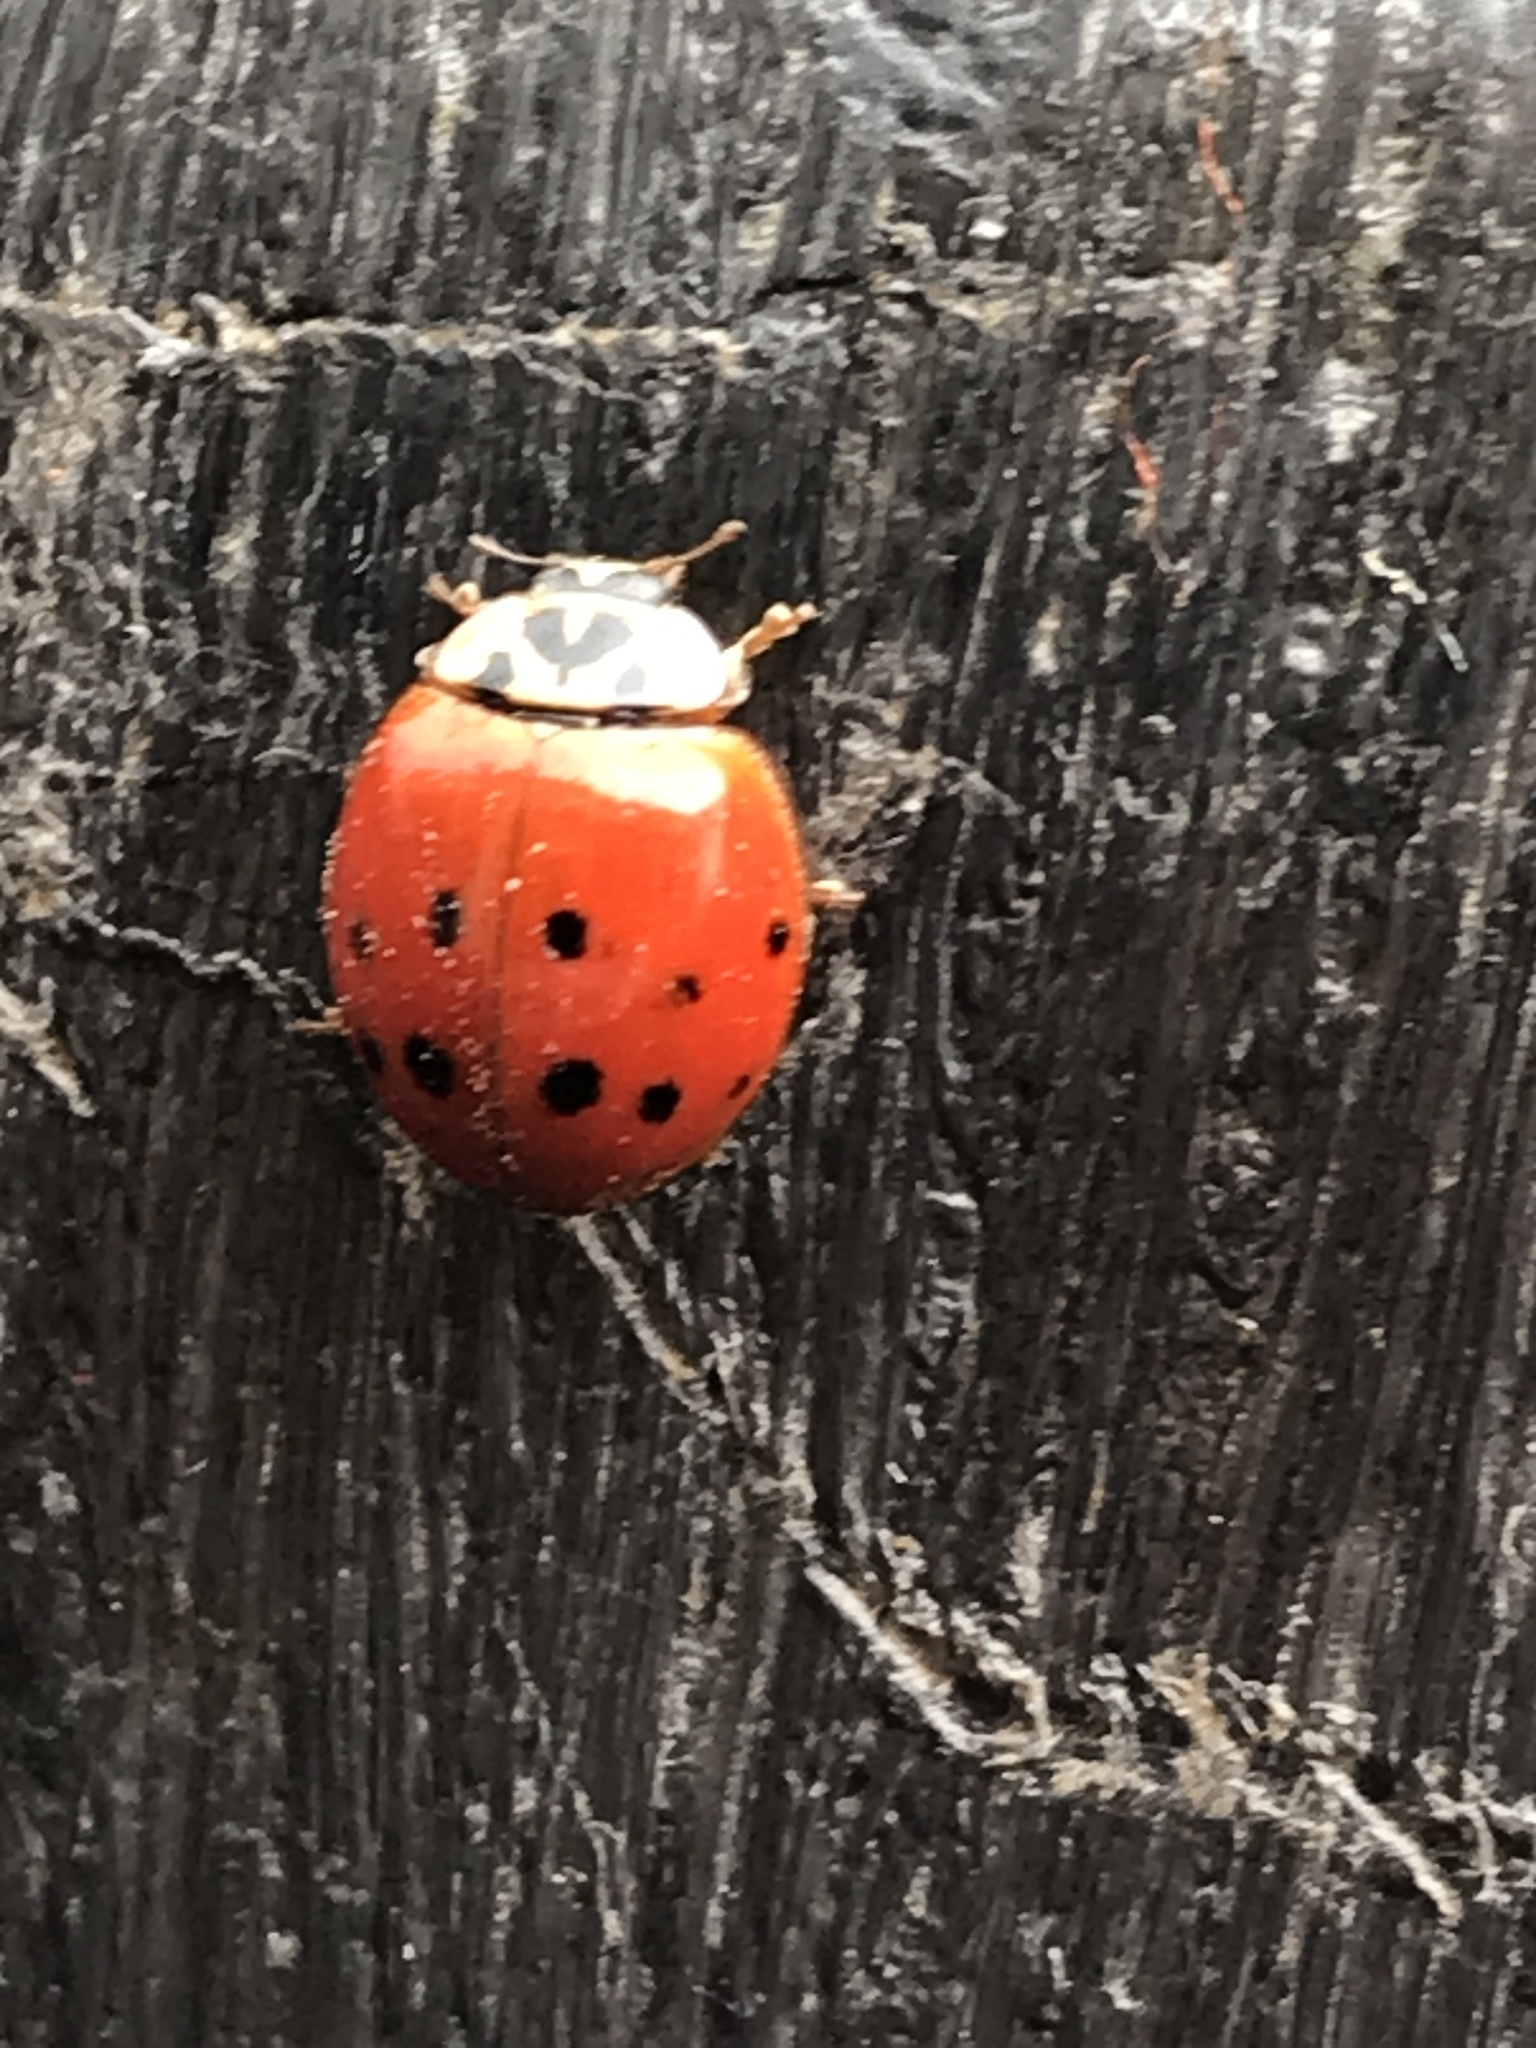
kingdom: Animalia
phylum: Arthropoda
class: Insecta
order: Coleoptera
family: Coccinellidae
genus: Harmonia
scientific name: Harmonia axyridis
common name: Harlequin ladybird
